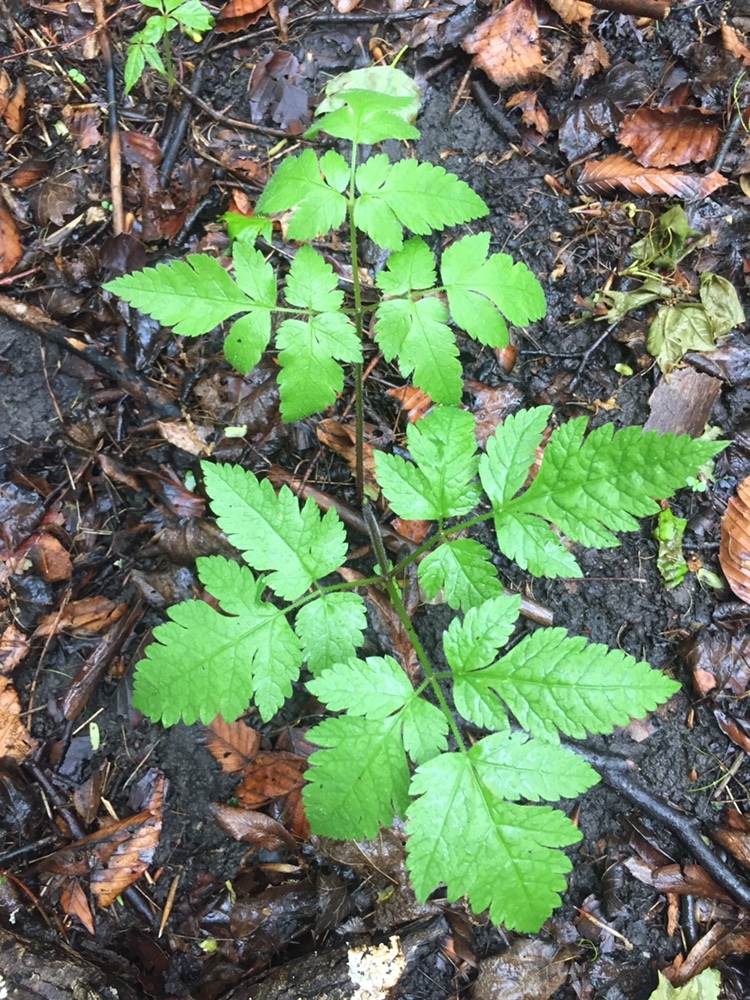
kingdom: Plantae
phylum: Tracheophyta
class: Magnoliopsida
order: Apiales
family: Apiaceae
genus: Osmorhiza
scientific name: Osmorhiza longistylis
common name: Smooth sweet cicely
